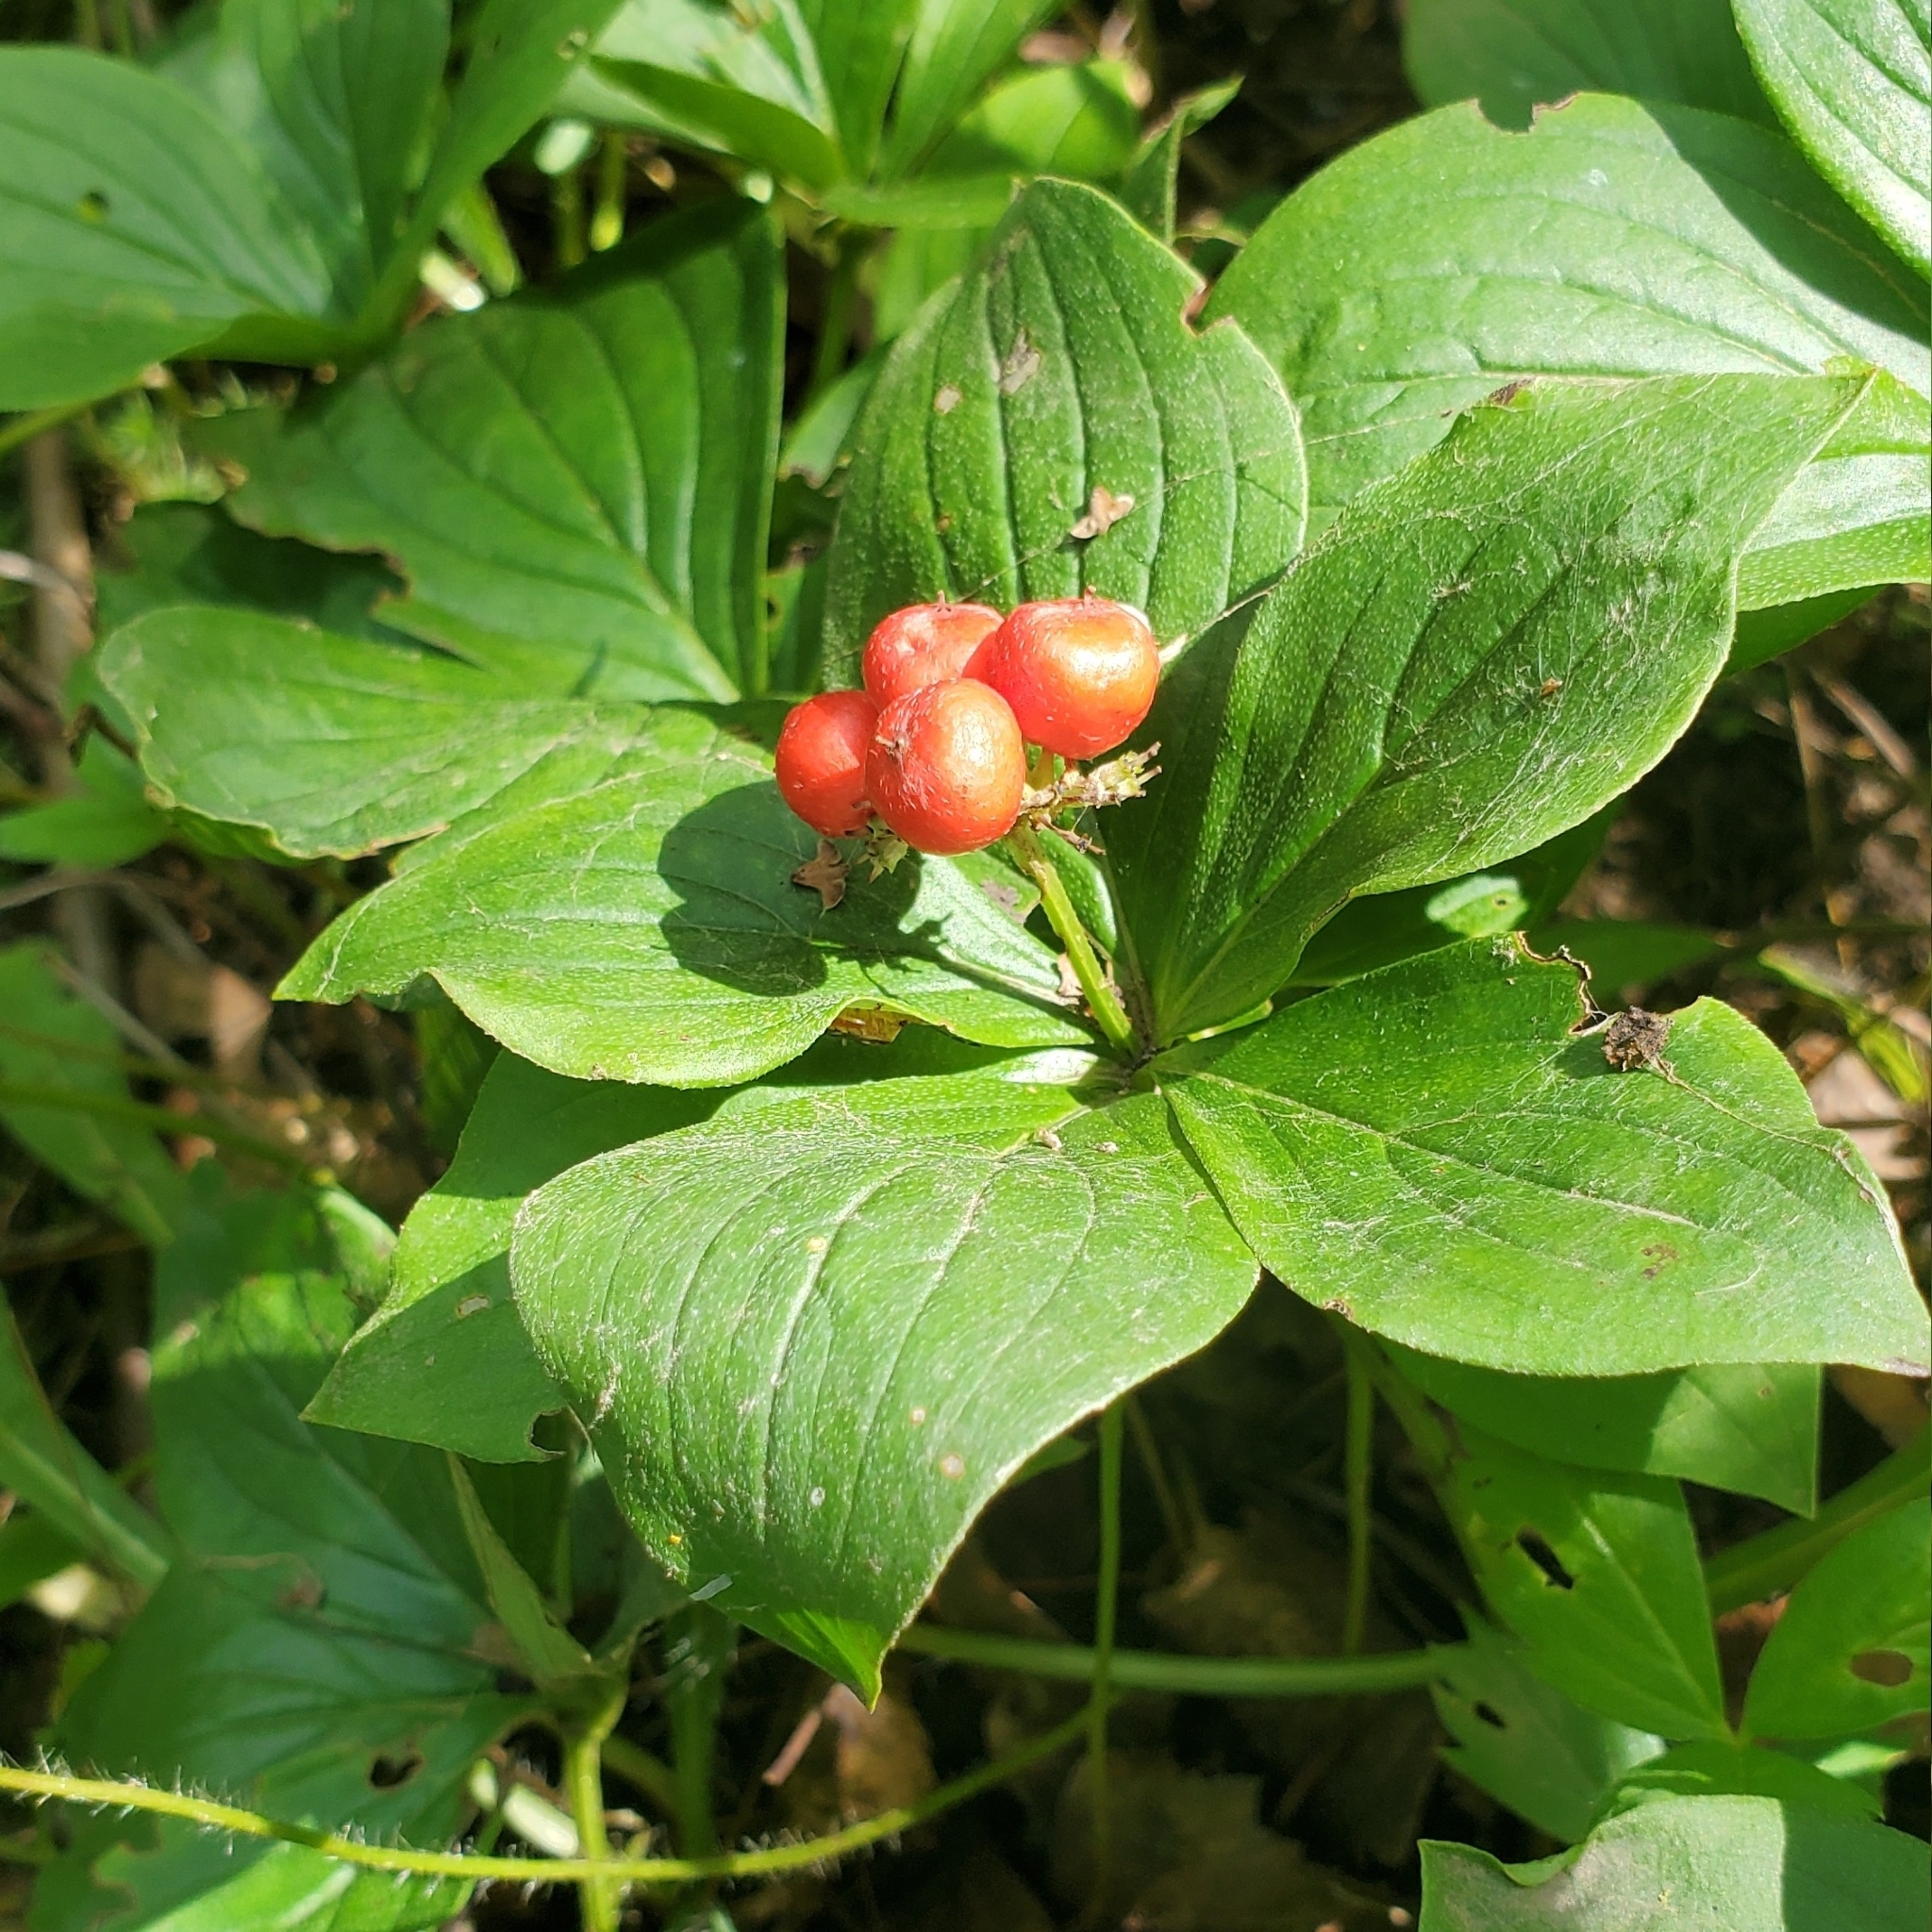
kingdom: Plantae
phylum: Tracheophyta
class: Magnoliopsida
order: Cornales
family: Cornaceae
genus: Cornus
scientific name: Cornus canadensis
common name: Creeping dogwood
